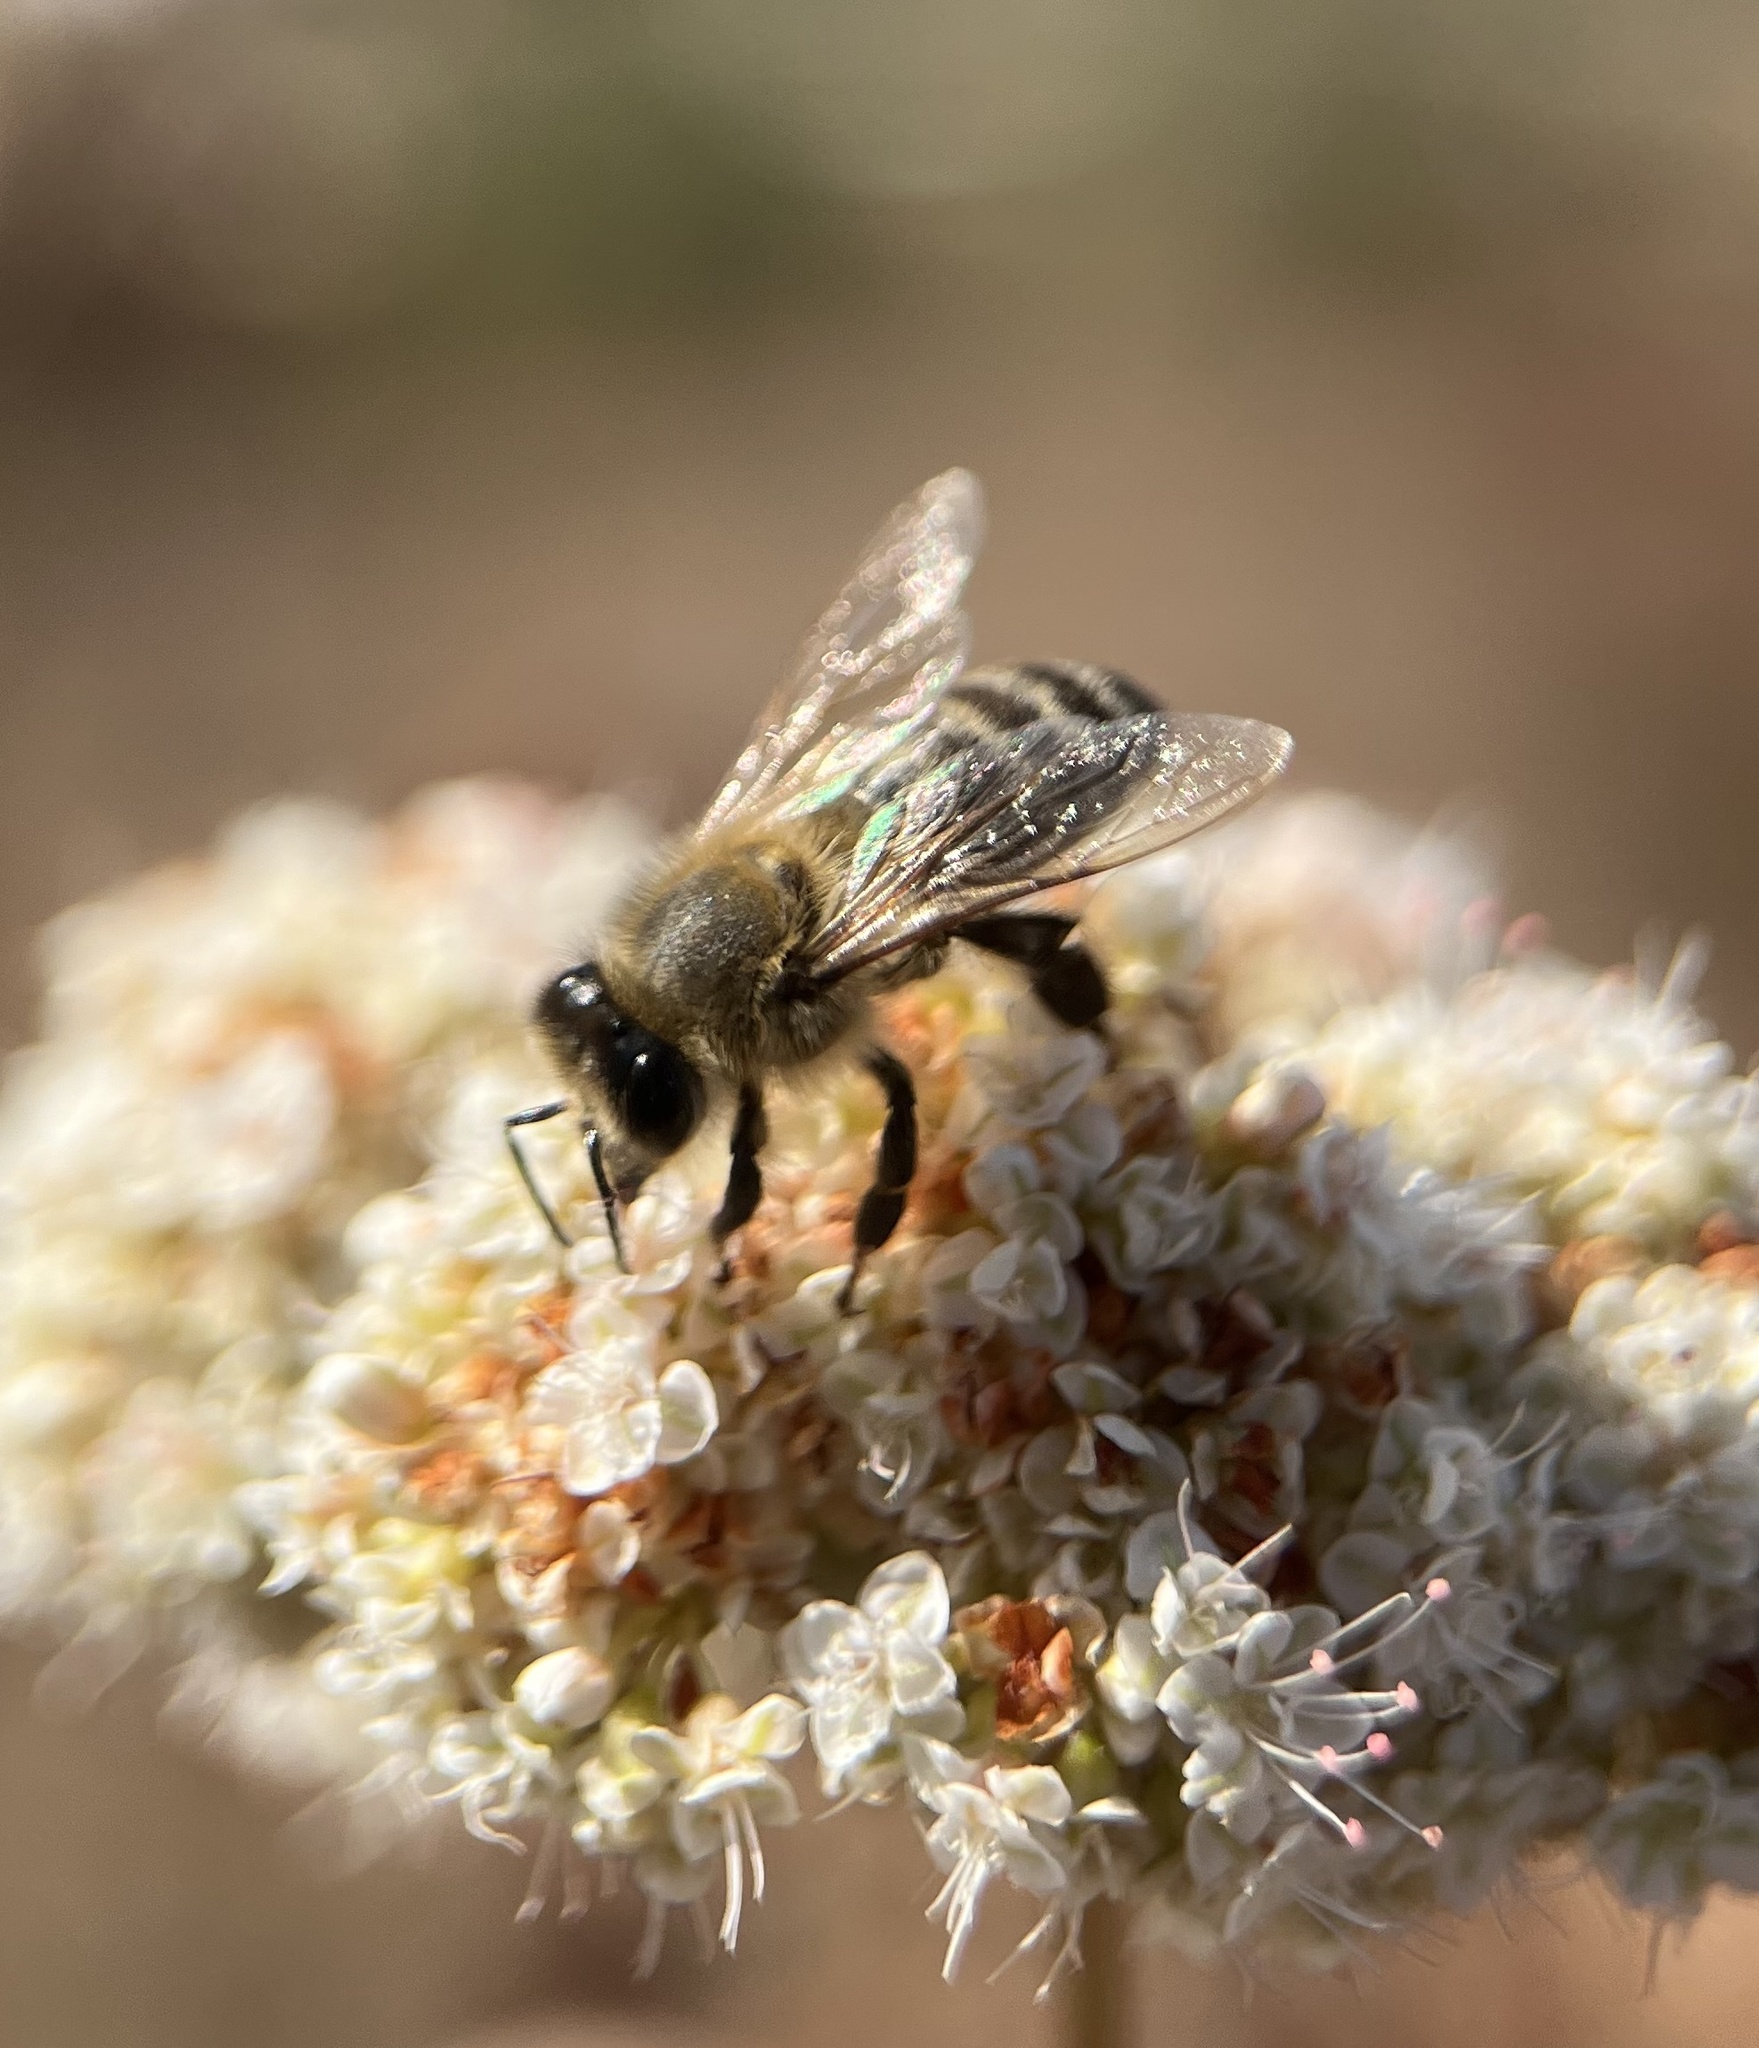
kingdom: Animalia
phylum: Arthropoda
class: Insecta
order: Hymenoptera
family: Apidae
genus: Apis
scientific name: Apis mellifera
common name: Honey bee
